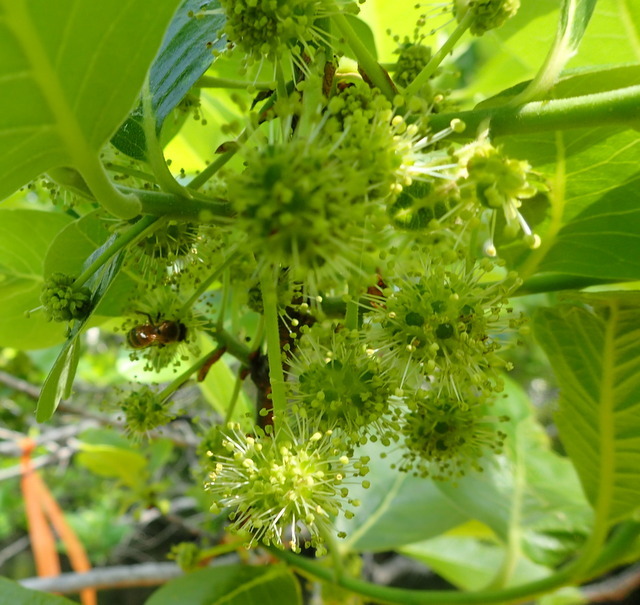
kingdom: Animalia
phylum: Arthropoda
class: Insecta
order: Hymenoptera
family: Apidae
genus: Apis
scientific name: Apis mellifera
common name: Honey bee
